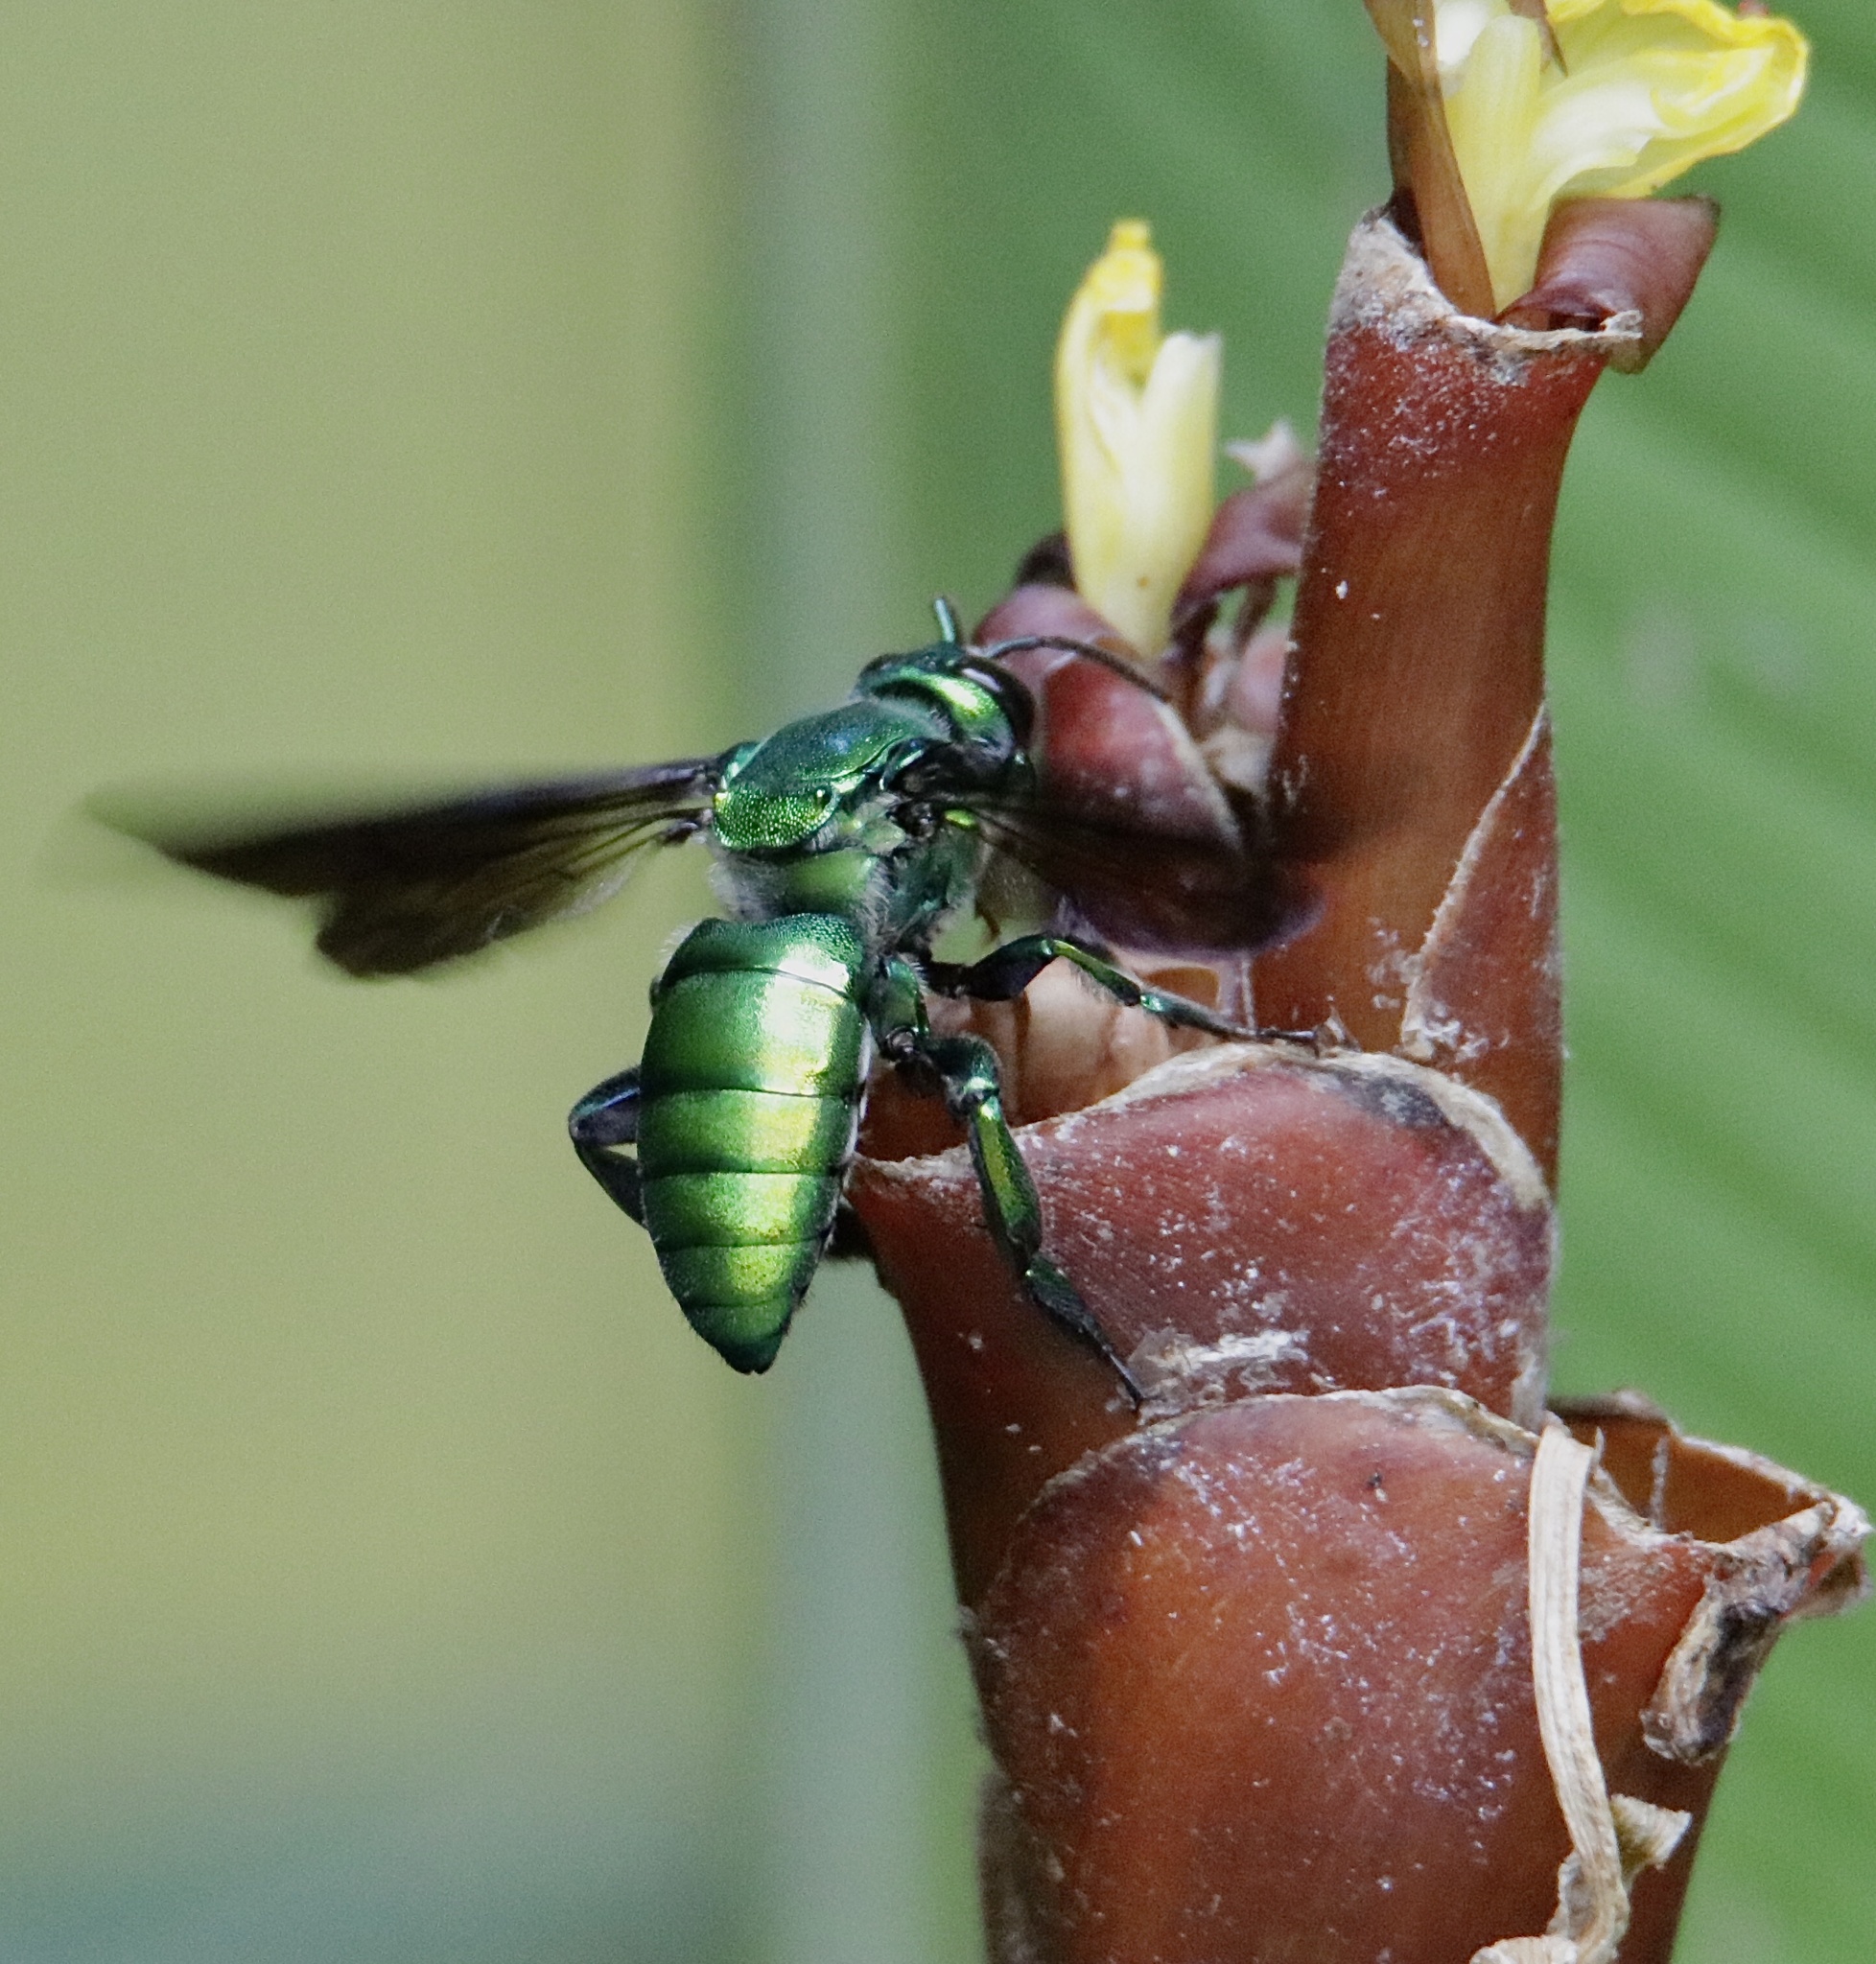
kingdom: Animalia
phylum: Arthropoda
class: Insecta
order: Hymenoptera
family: Apidae
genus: Exaerete
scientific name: Exaerete frontalis
